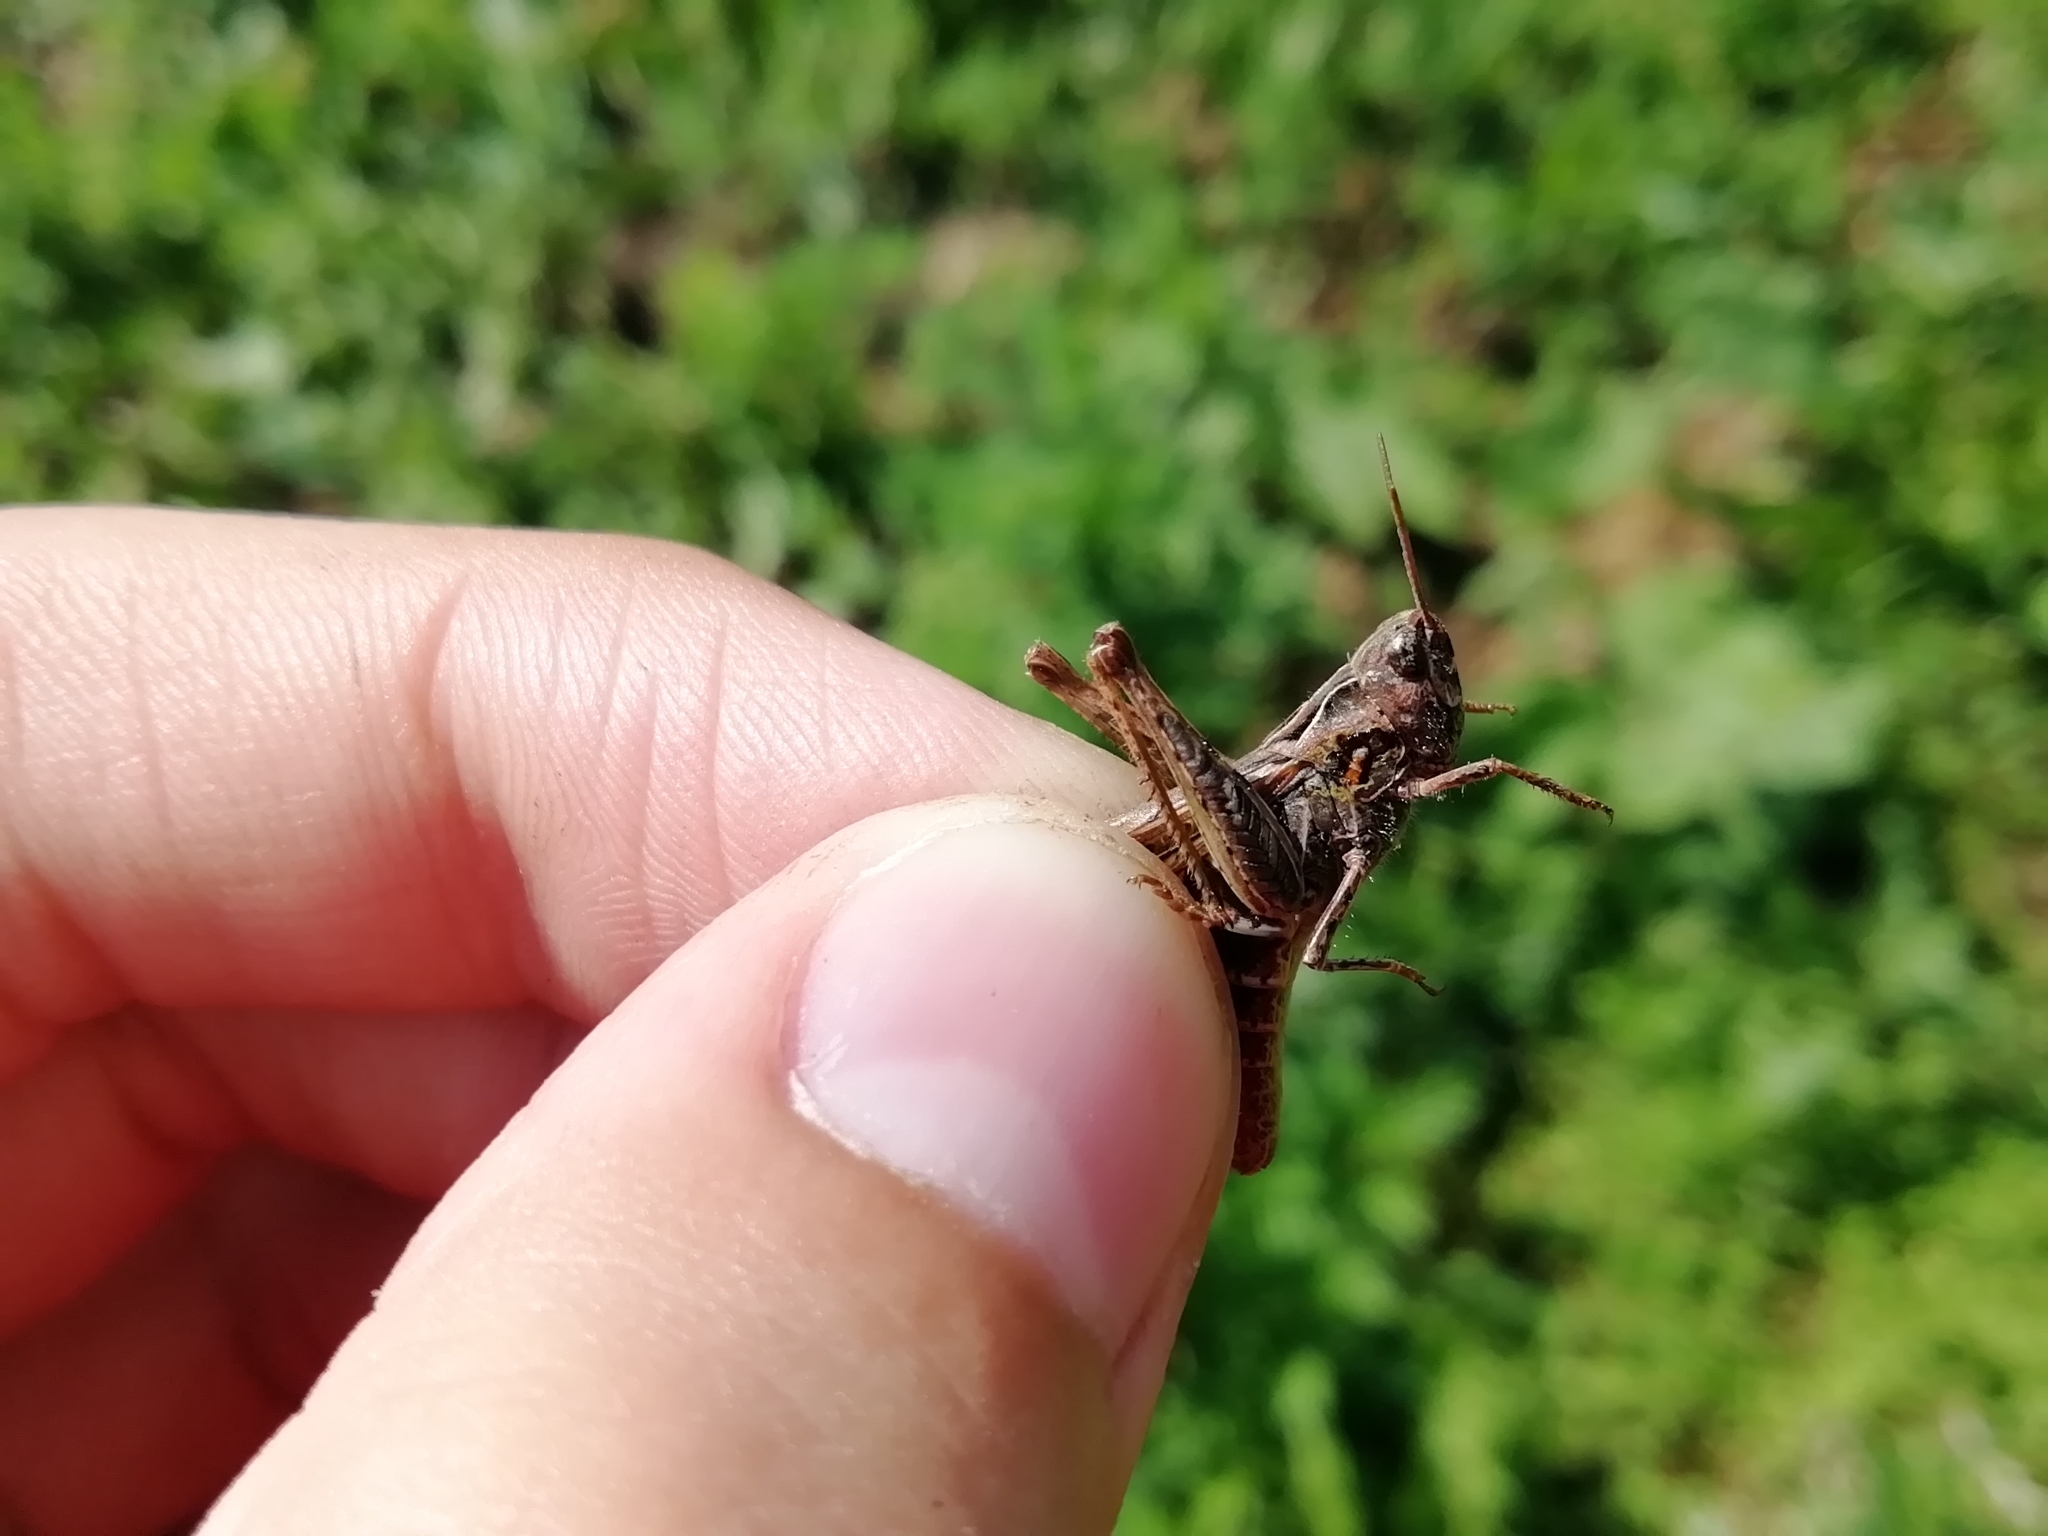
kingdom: Animalia
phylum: Arthropoda
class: Insecta
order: Orthoptera
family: Acrididae
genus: Chorthippus
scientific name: Chorthippus biguttulus
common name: Bow-winged grasshopper
